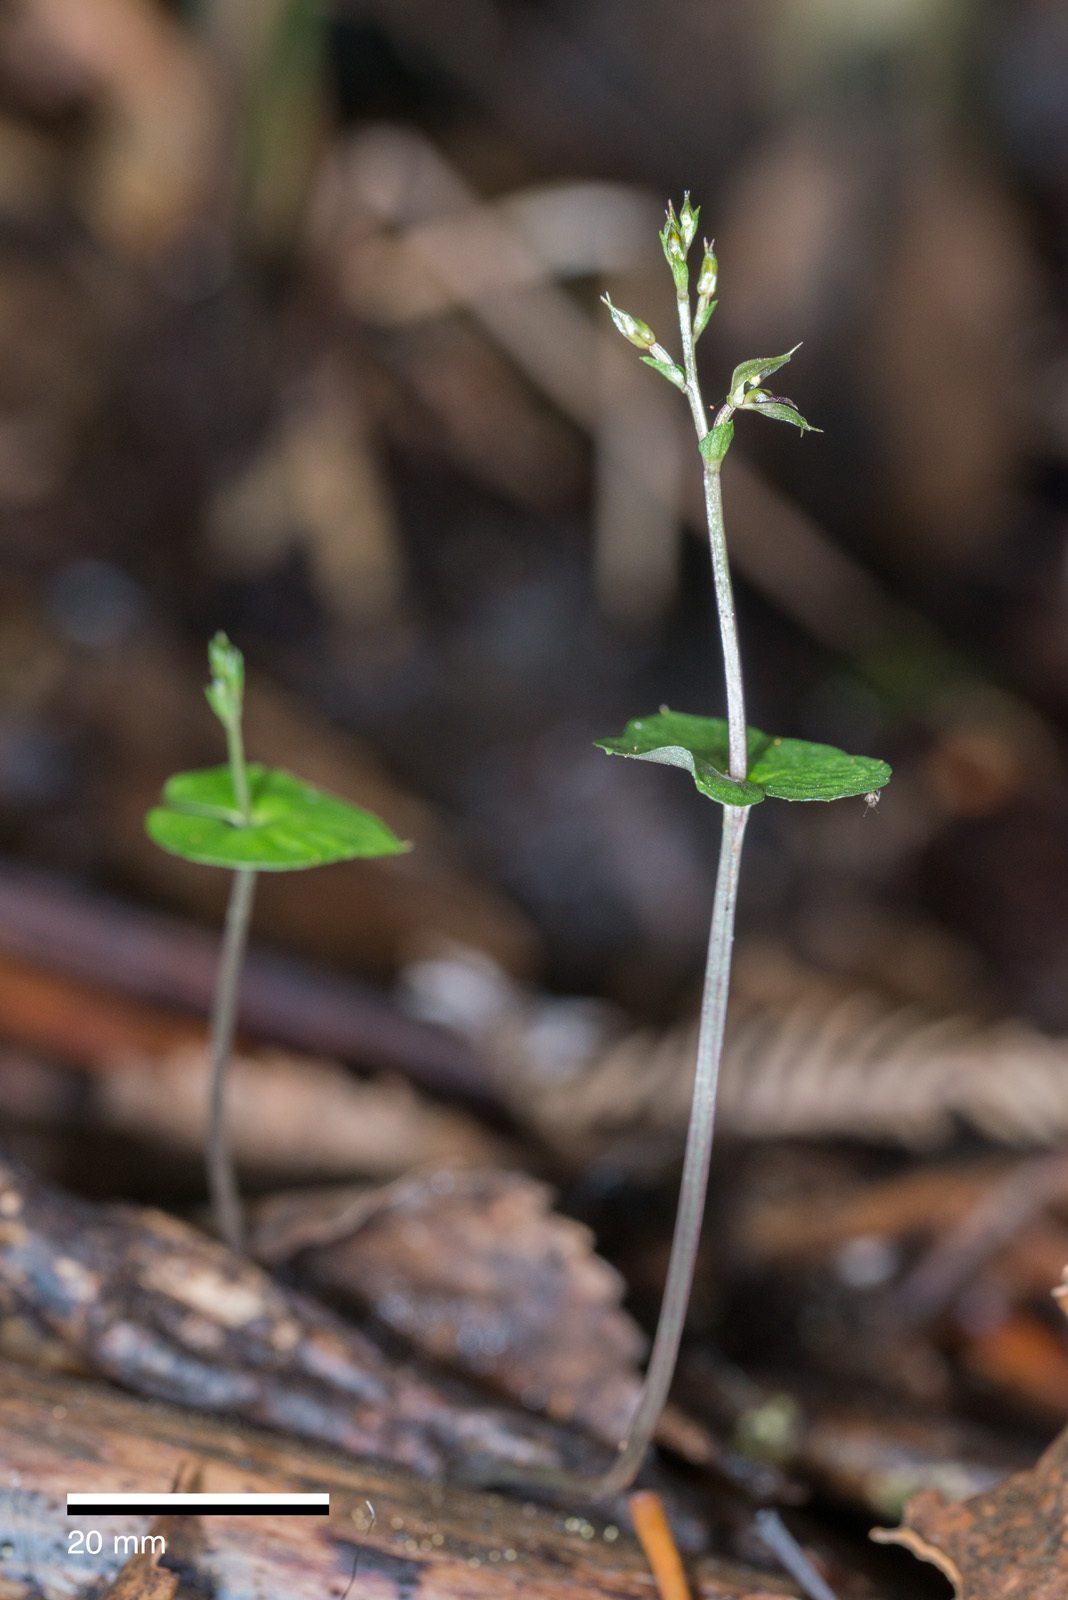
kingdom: Plantae
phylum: Tracheophyta
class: Liliopsida
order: Asparagales
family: Orchidaceae
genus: Acianthus
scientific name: Acianthus sinclairii
